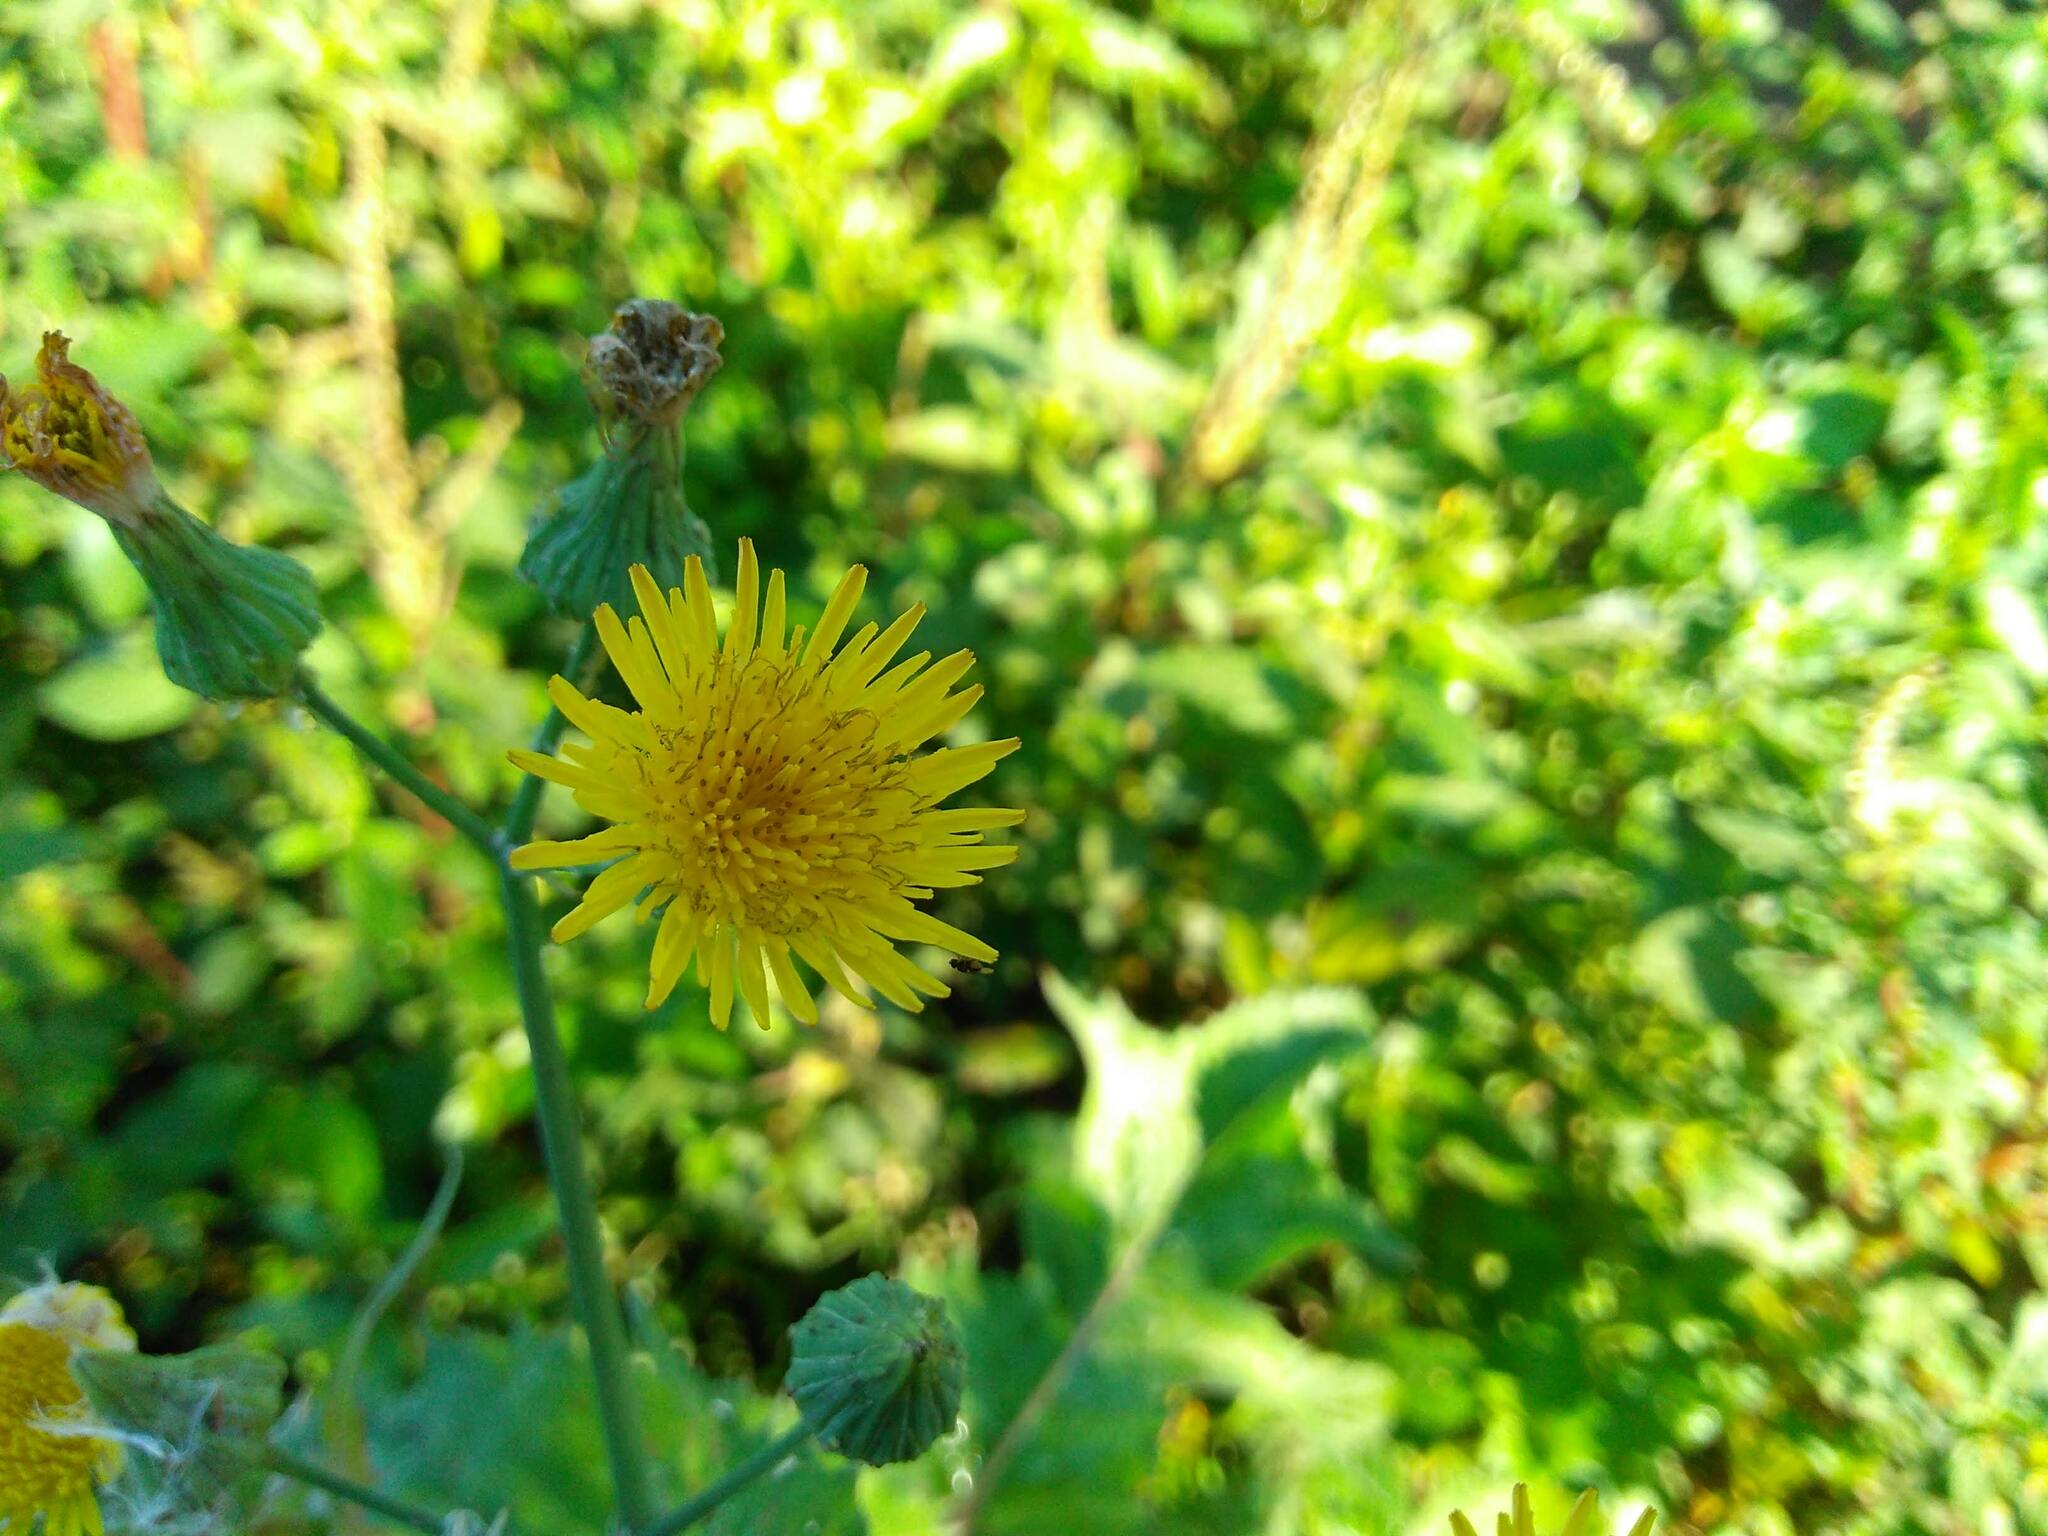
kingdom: Plantae
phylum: Tracheophyta
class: Magnoliopsida
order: Asterales
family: Asteraceae
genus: Sonchus
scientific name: Sonchus oleraceus
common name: Common sowthistle
